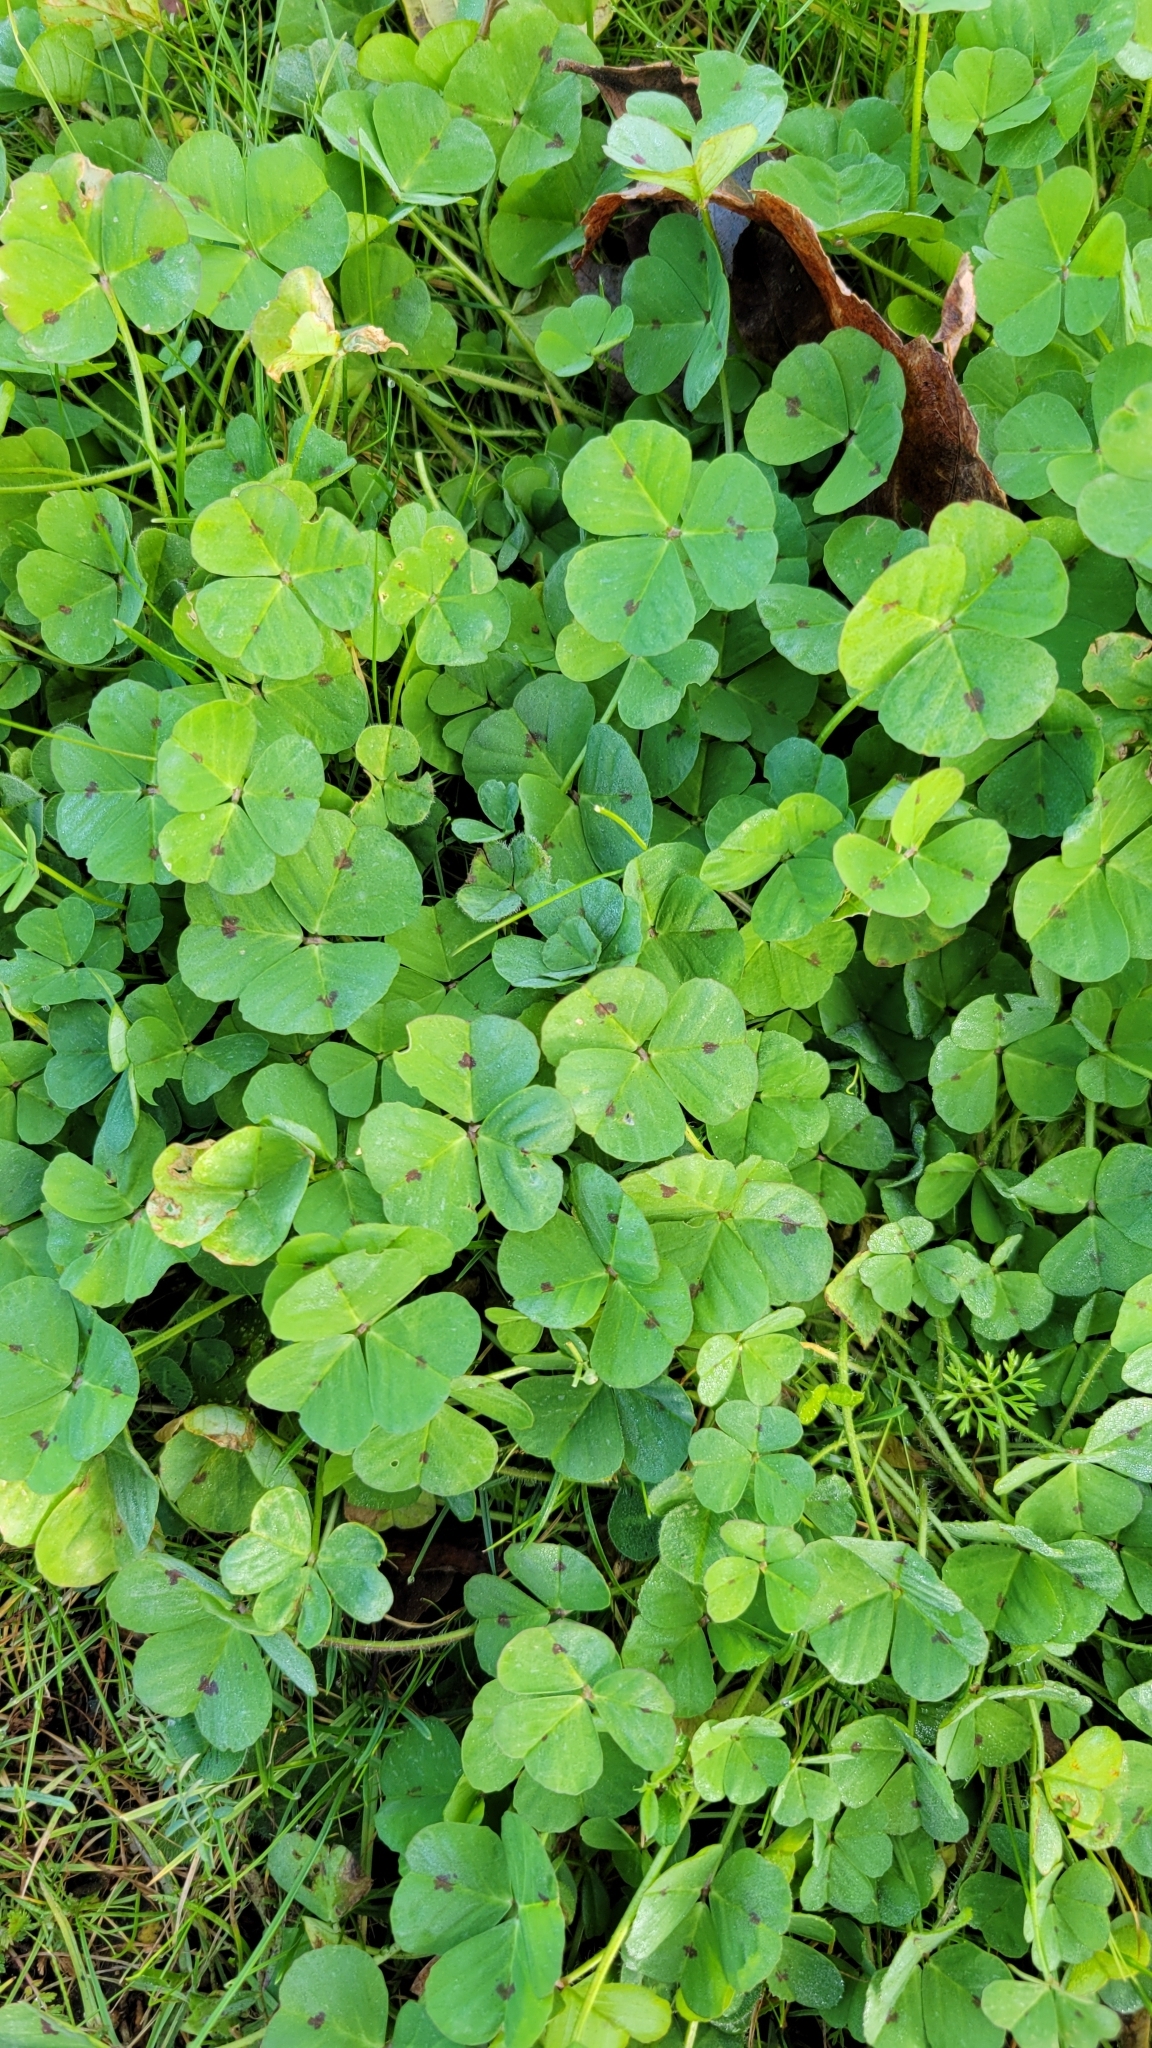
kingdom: Plantae
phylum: Tracheophyta
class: Magnoliopsida
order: Fabales
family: Fabaceae
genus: Medicago
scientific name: Medicago arabica
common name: Spotted medick
